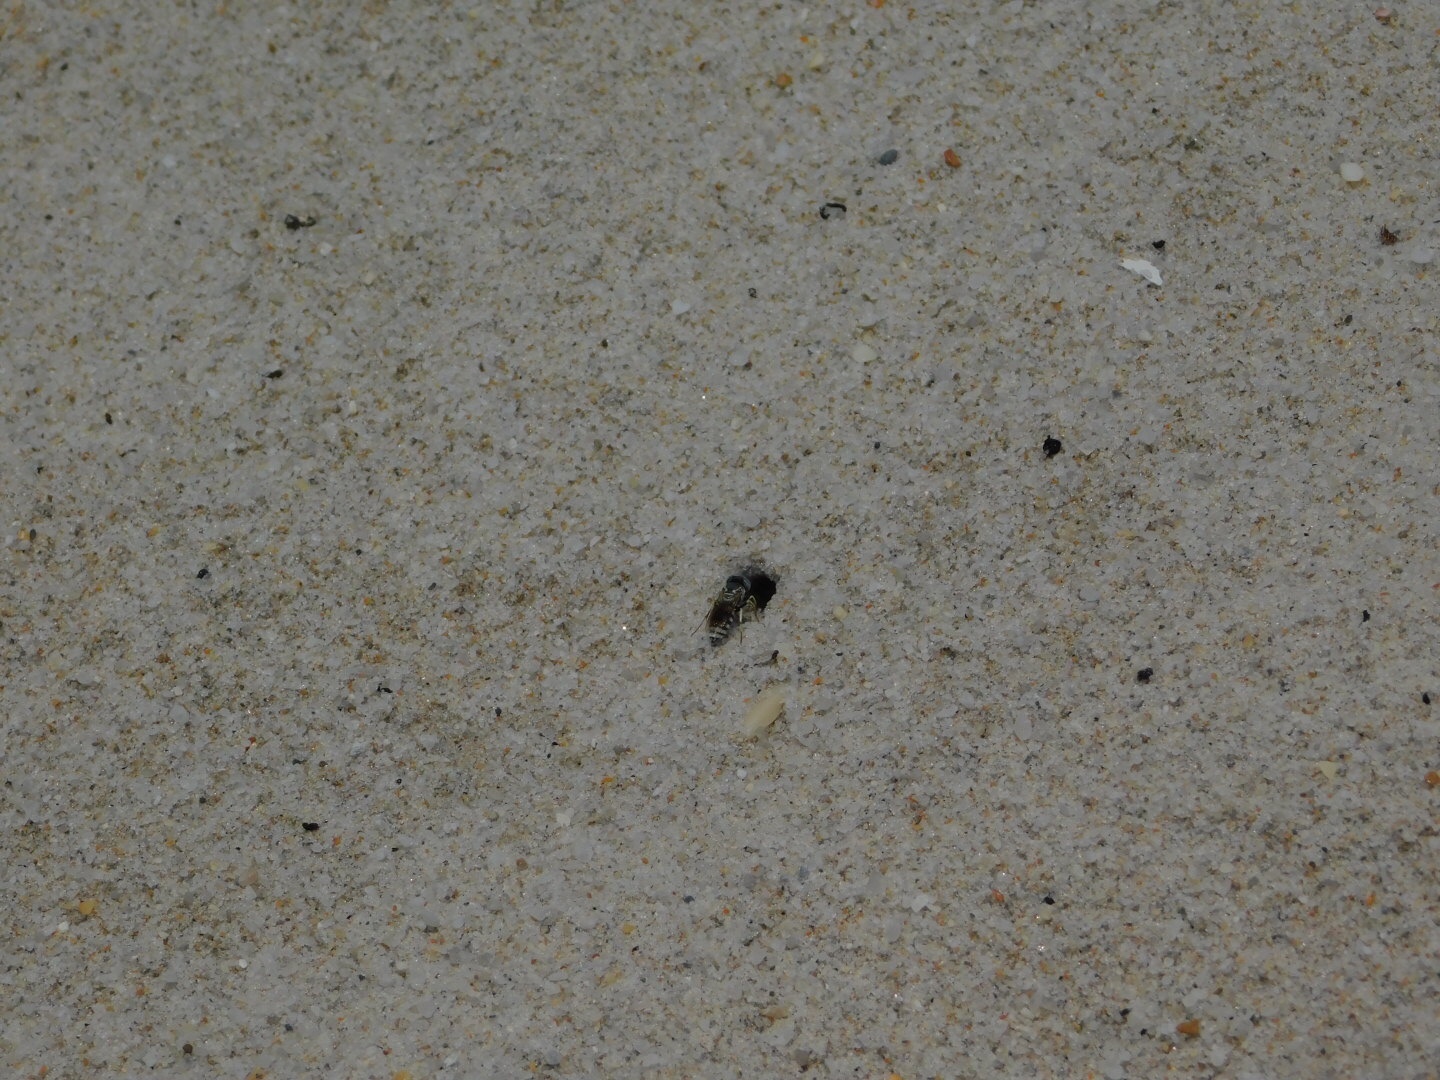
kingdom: Animalia
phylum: Arthropoda
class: Insecta
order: Hymenoptera
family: Crabronidae
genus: Microbembex
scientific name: Microbembex monodonta
